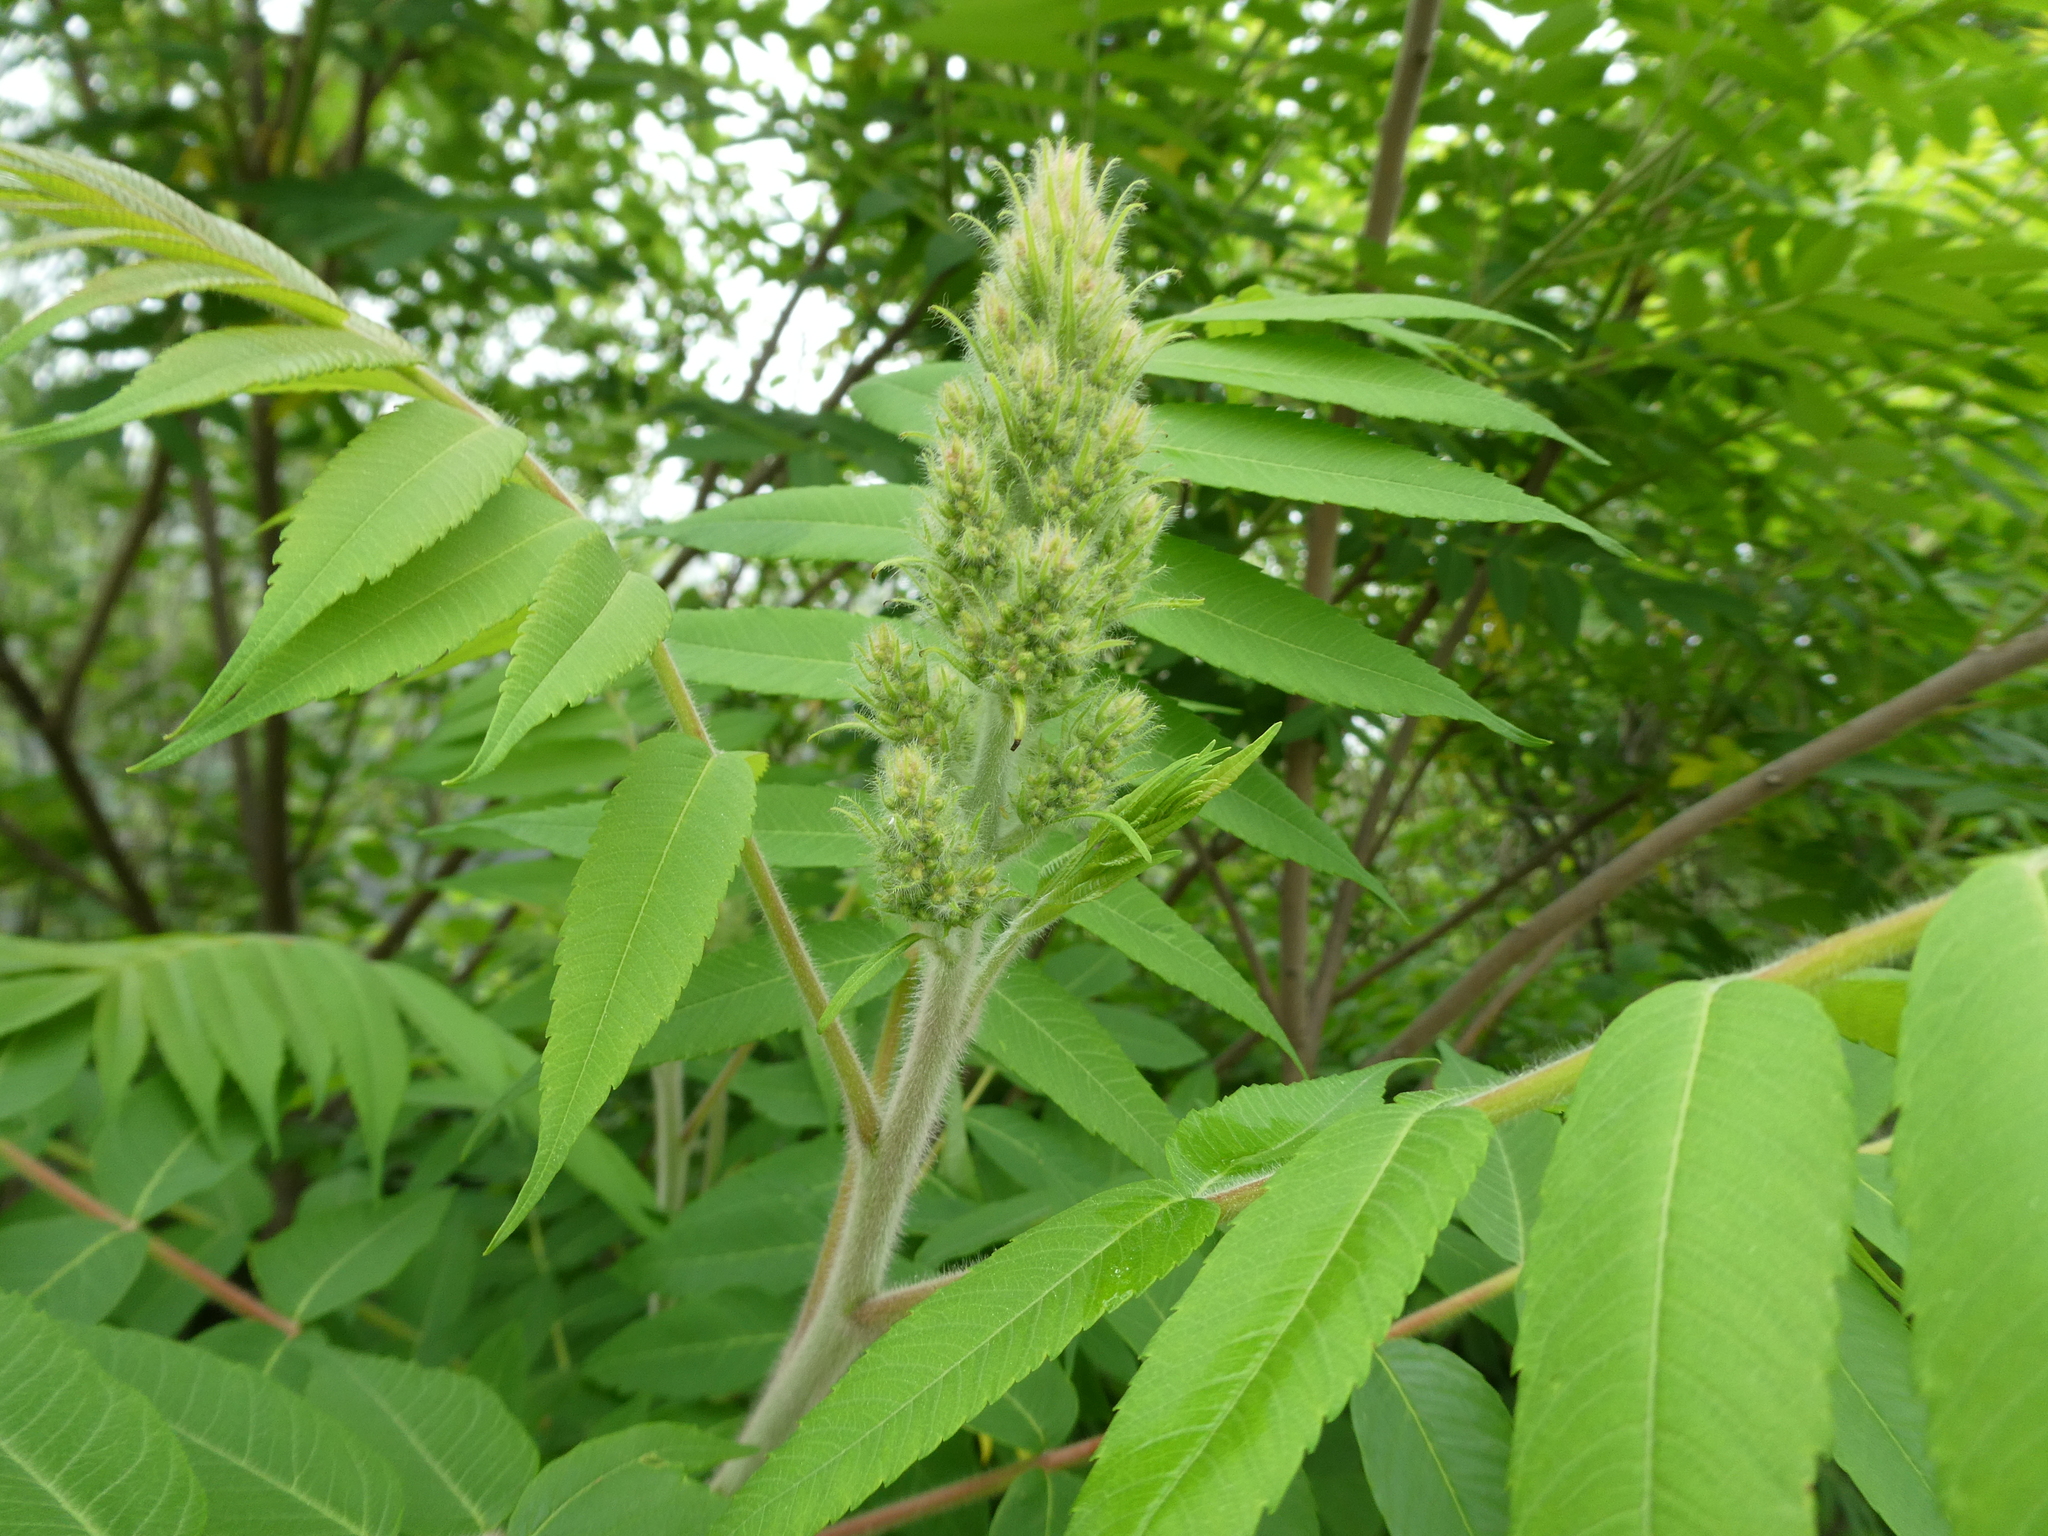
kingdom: Plantae
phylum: Tracheophyta
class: Magnoliopsida
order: Sapindales
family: Anacardiaceae
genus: Rhus
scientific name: Rhus typhina
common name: Staghorn sumac
